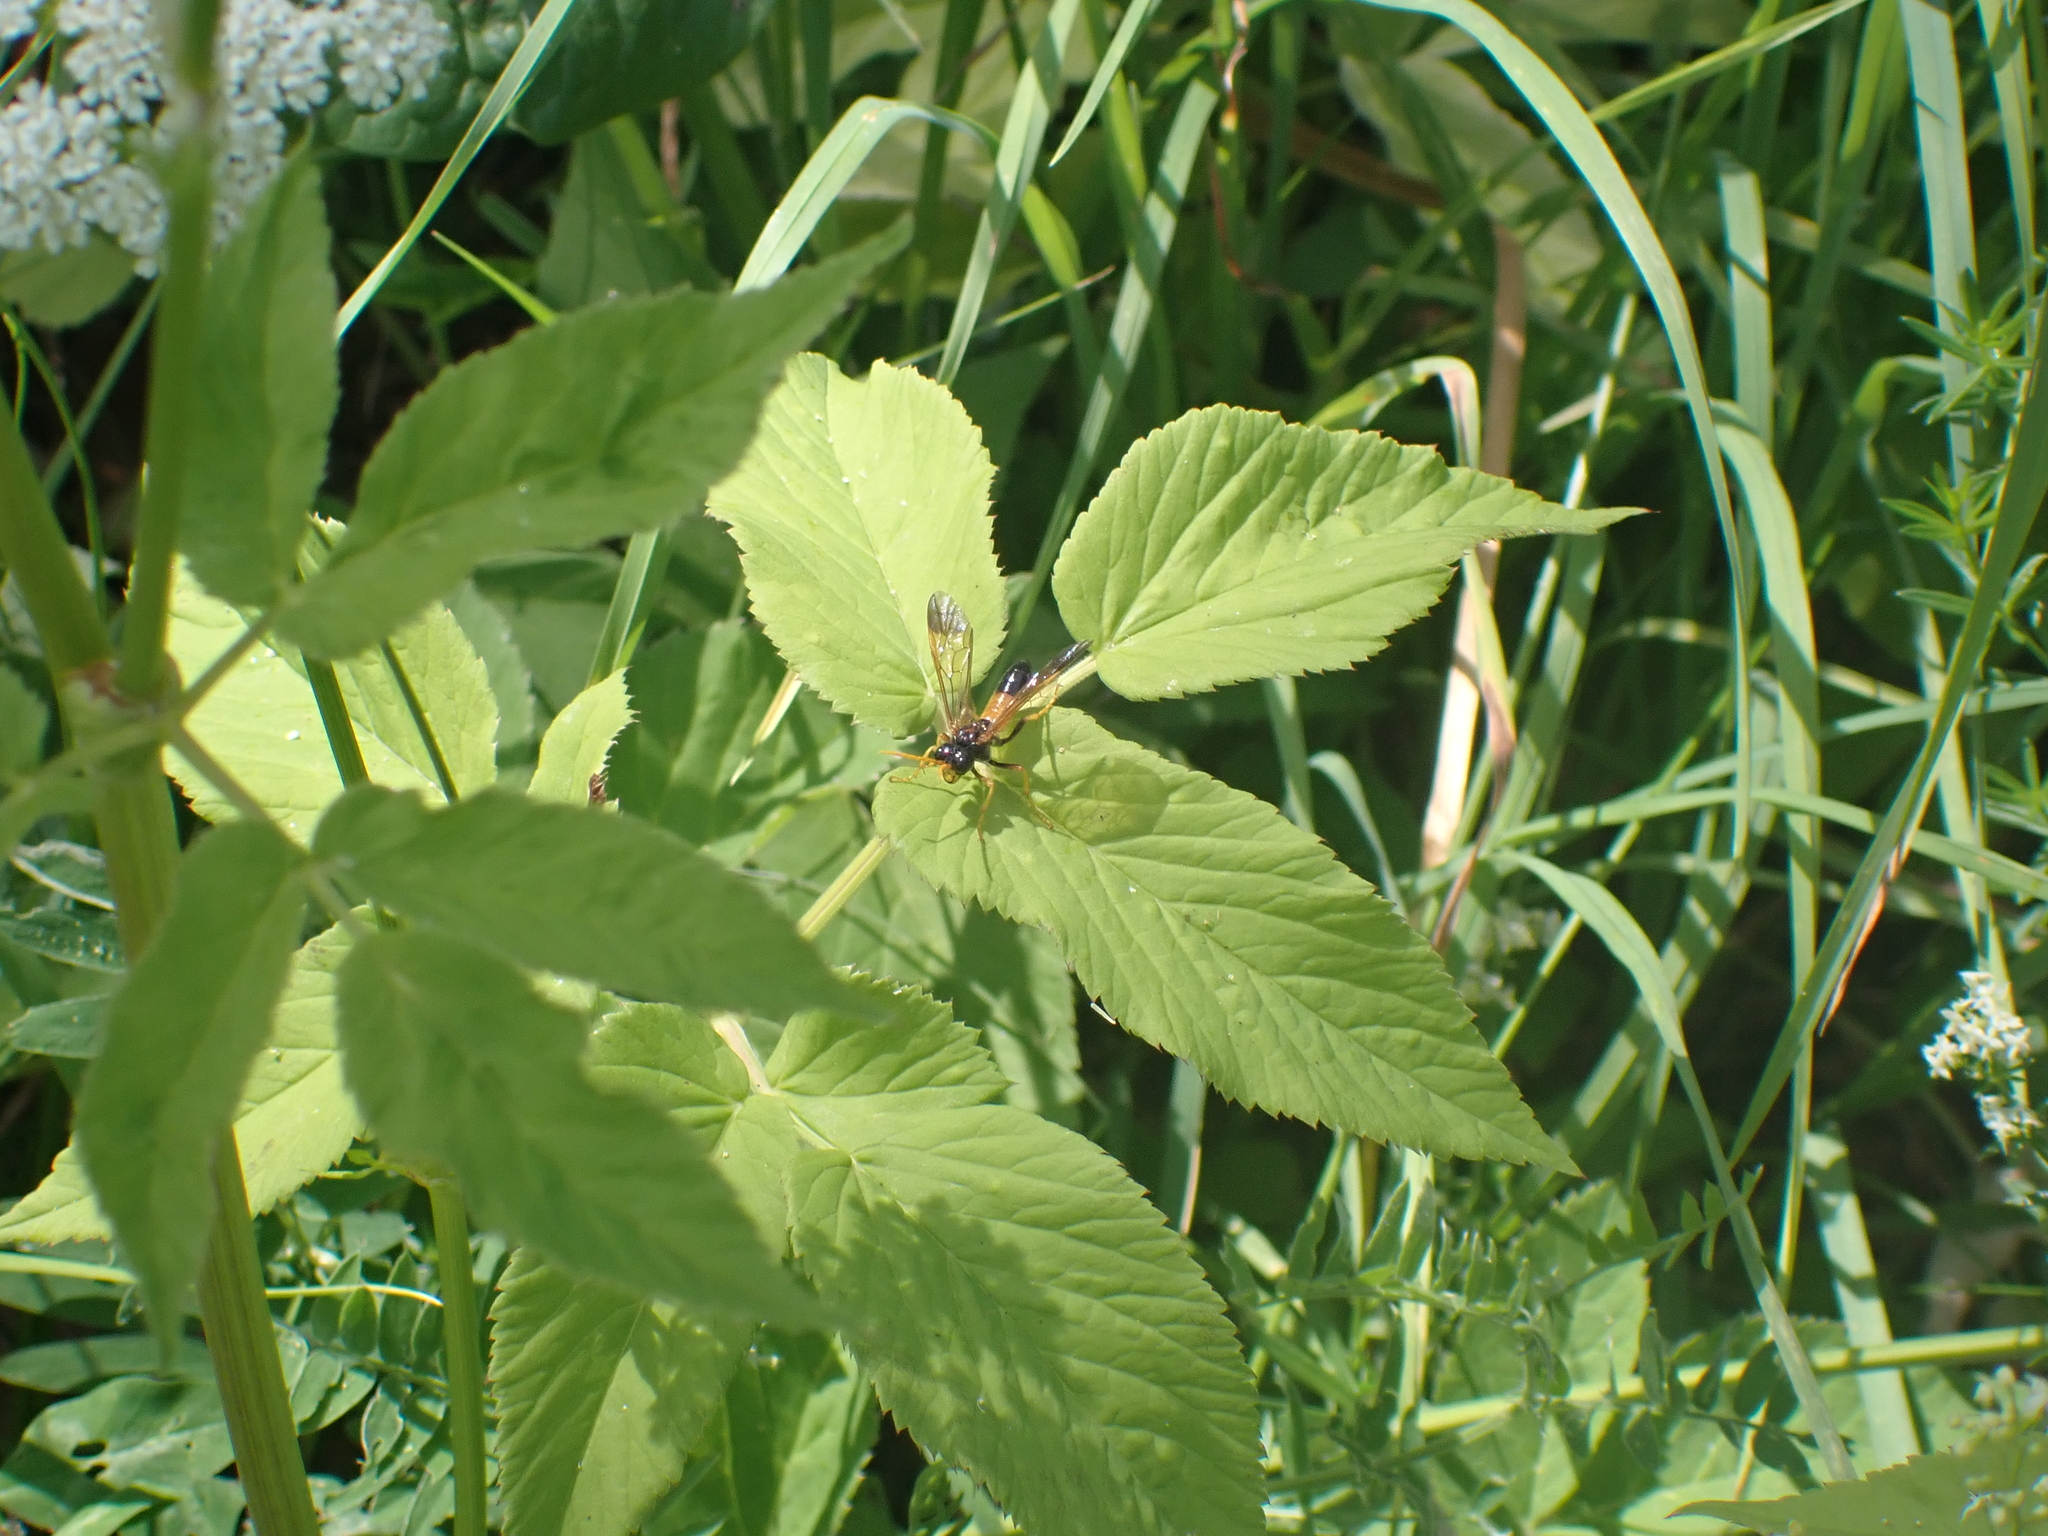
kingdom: Animalia
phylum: Arthropoda
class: Insecta
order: Hymenoptera
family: Tenthredinidae
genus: Tenthredo
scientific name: Tenthredo campestris
